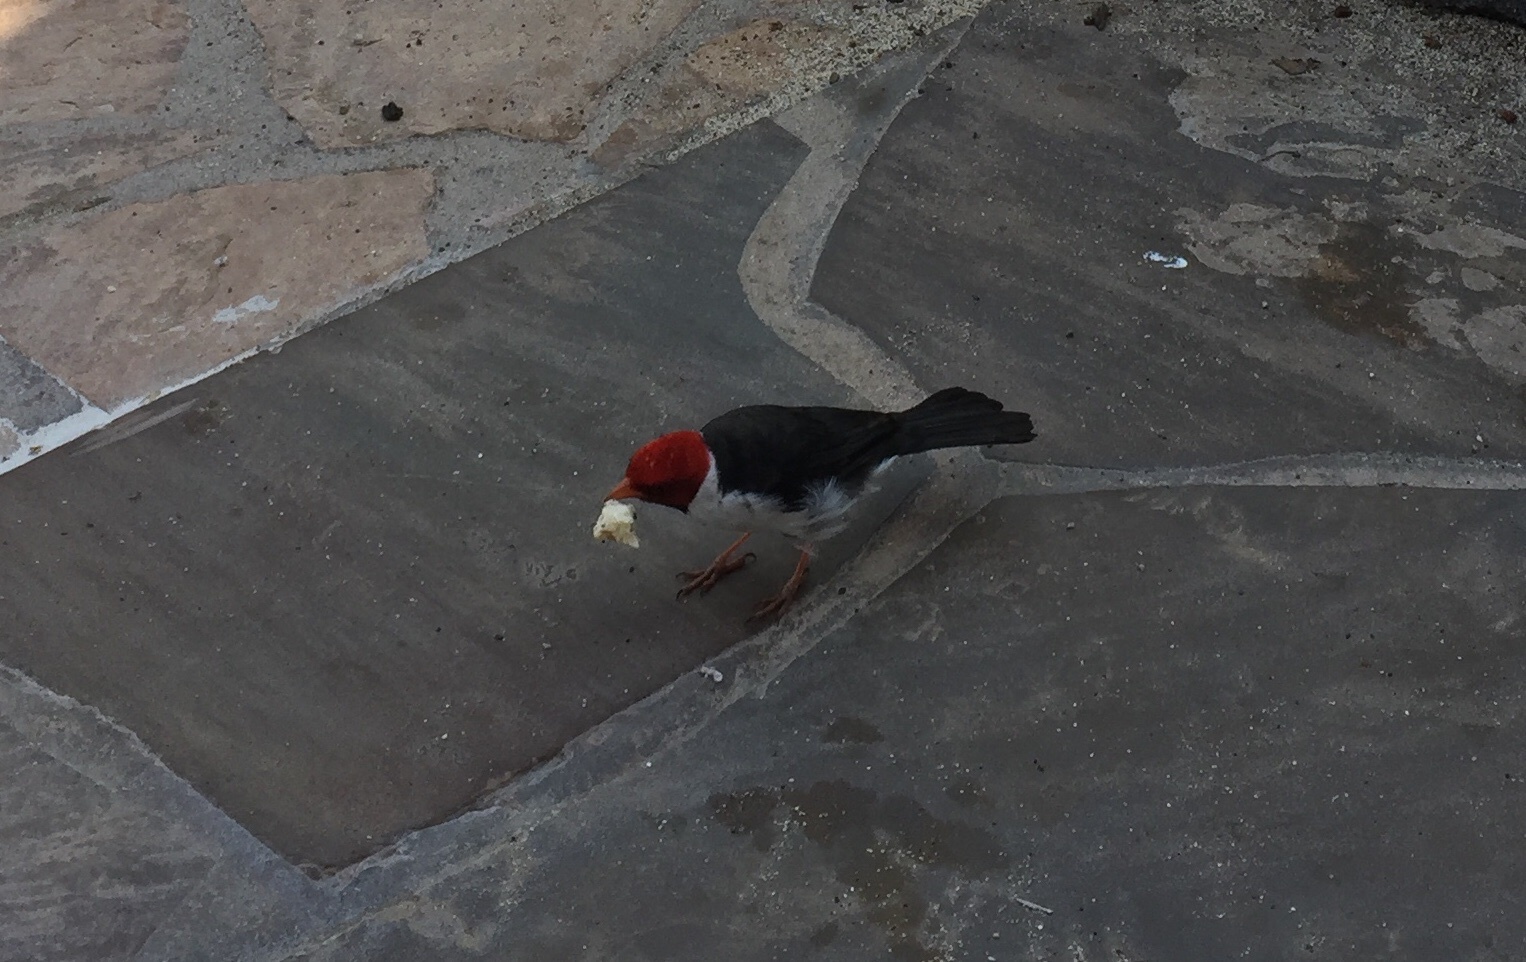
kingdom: Animalia
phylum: Chordata
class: Aves
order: Passeriformes
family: Thraupidae
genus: Paroaria
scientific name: Paroaria capitata
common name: Yellow-billed cardinal
